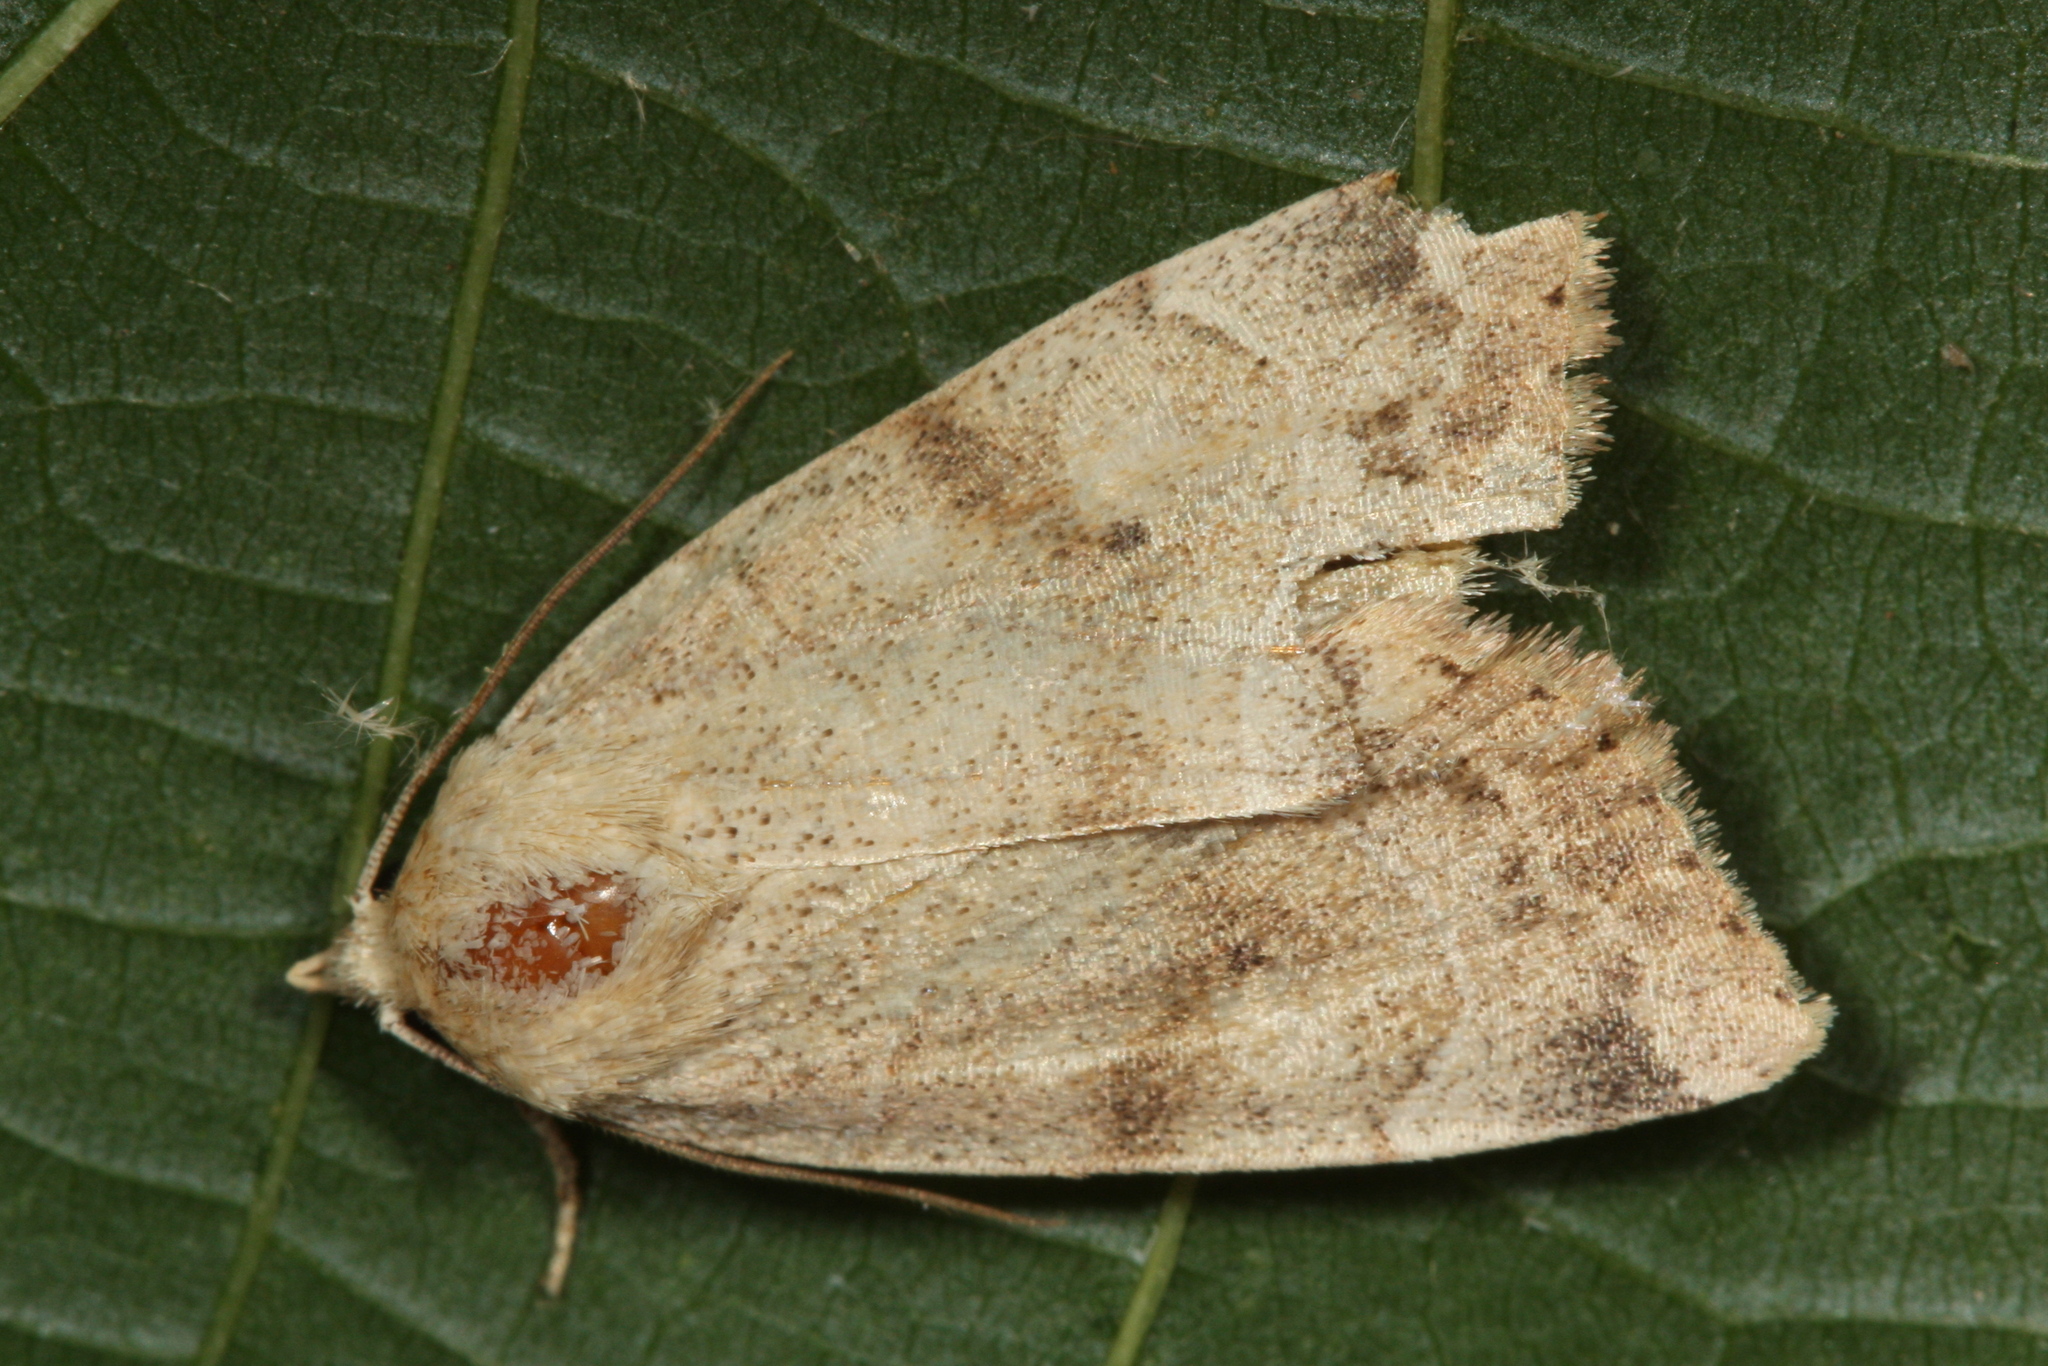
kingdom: Animalia
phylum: Arthropoda
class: Insecta
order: Lepidoptera
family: Noctuidae
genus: Cosmia
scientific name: Cosmia trapezina
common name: Dun-bar
